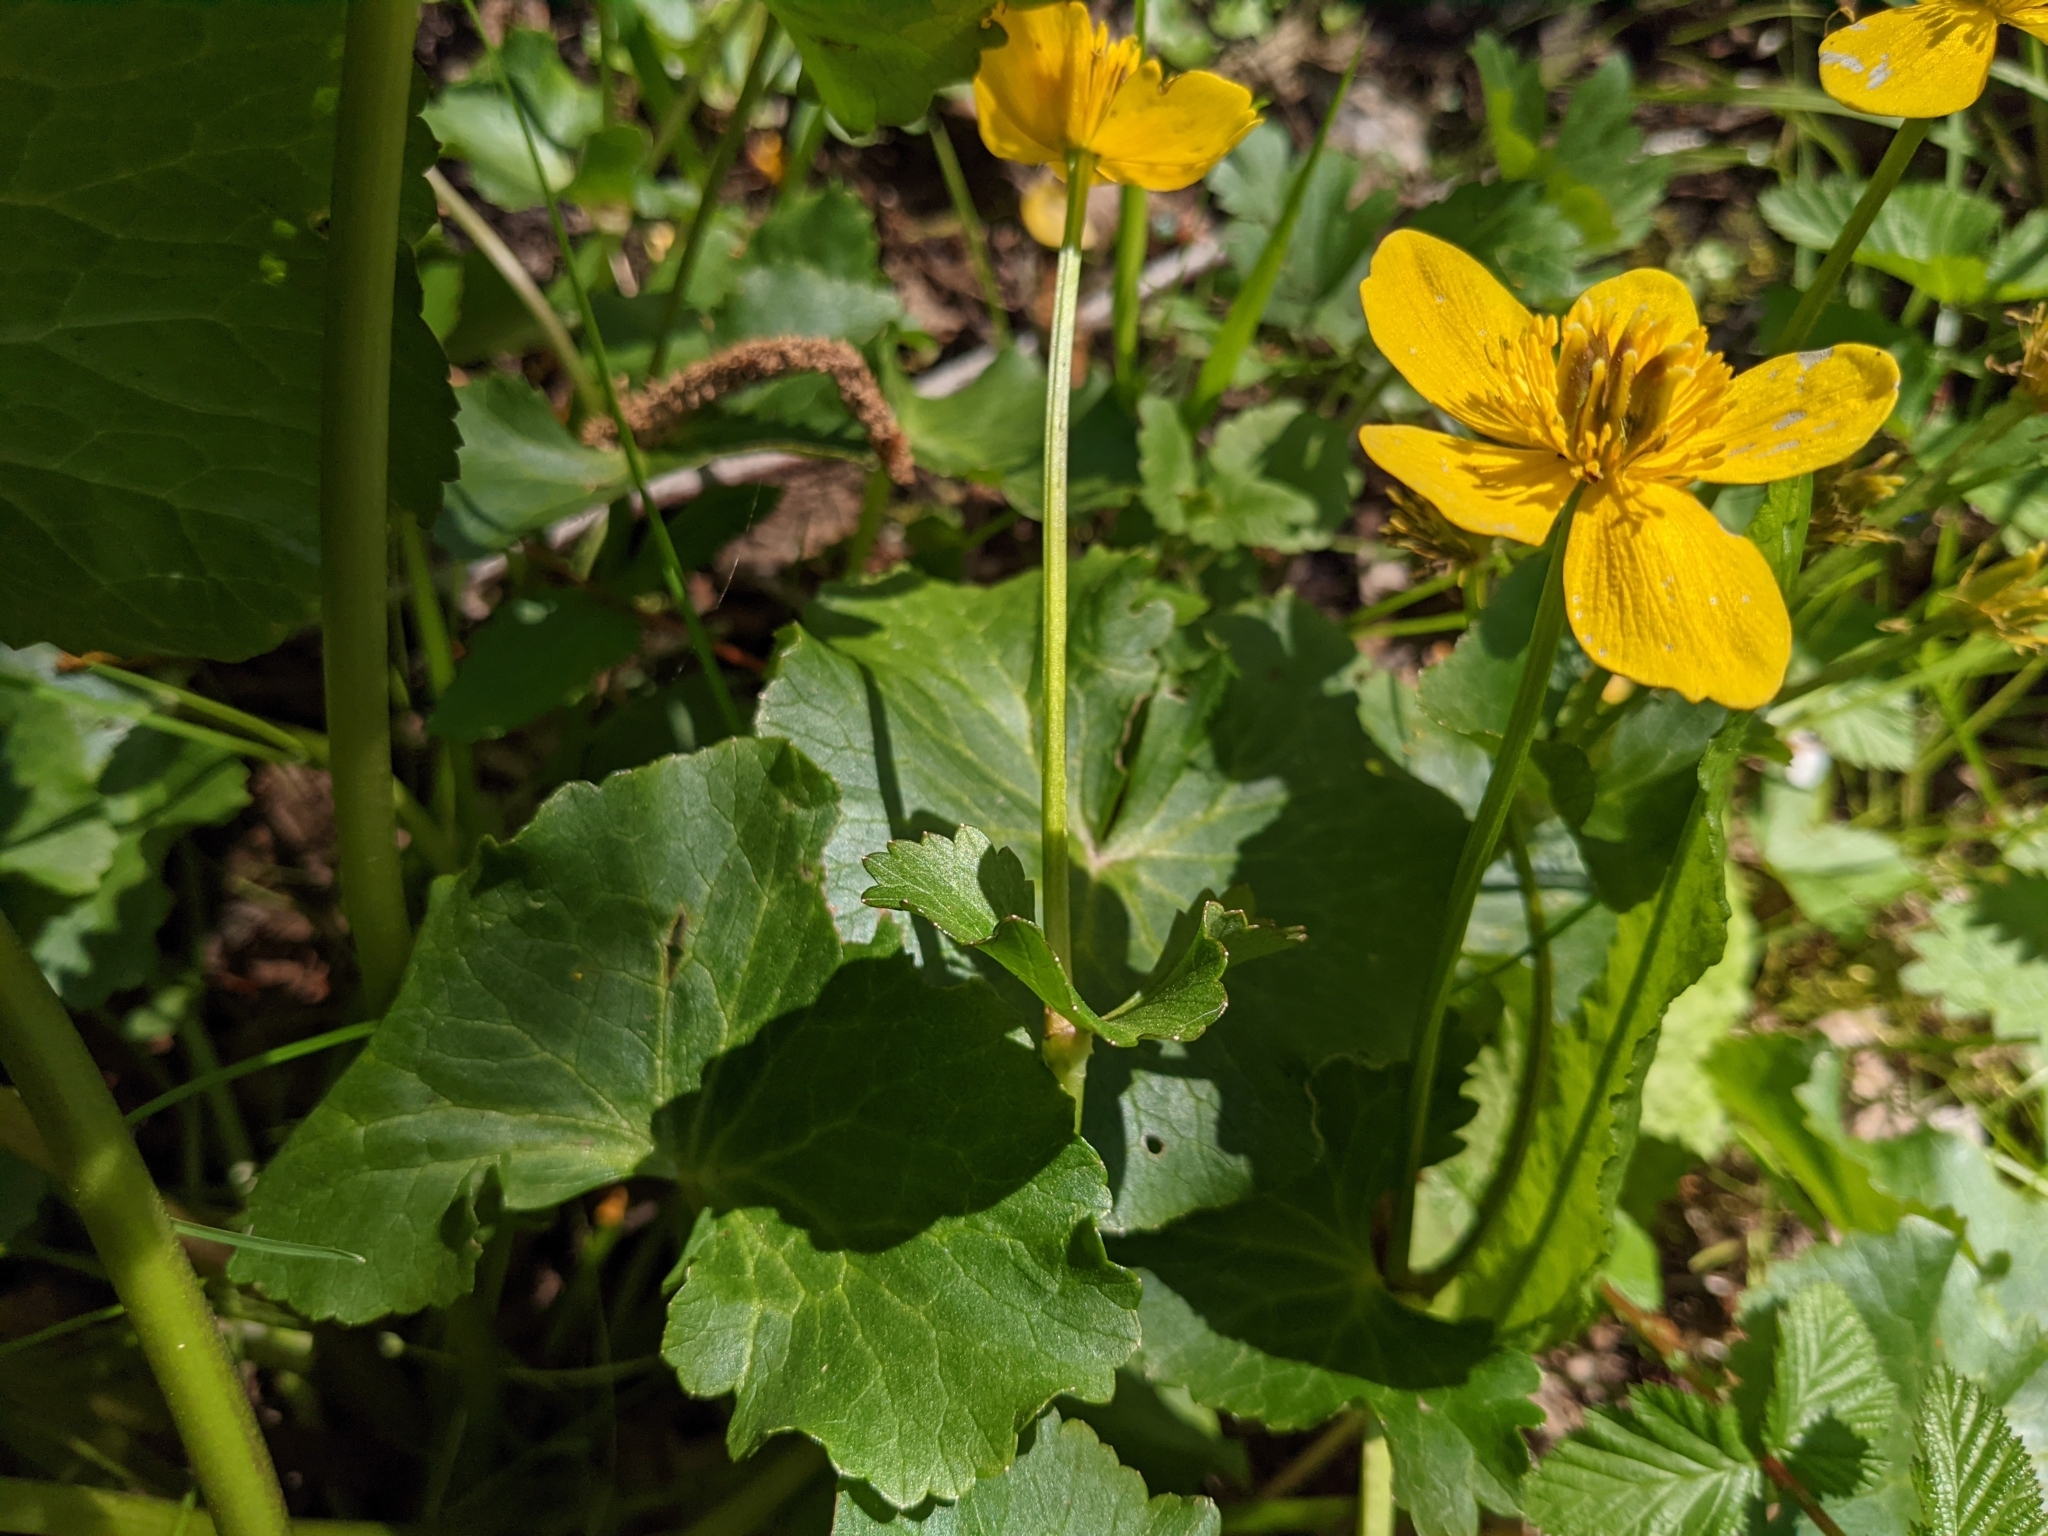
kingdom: Plantae
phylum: Tracheophyta
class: Magnoliopsida
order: Ranunculales
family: Ranunculaceae
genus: Caltha
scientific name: Caltha palustris
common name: Marsh marigold
